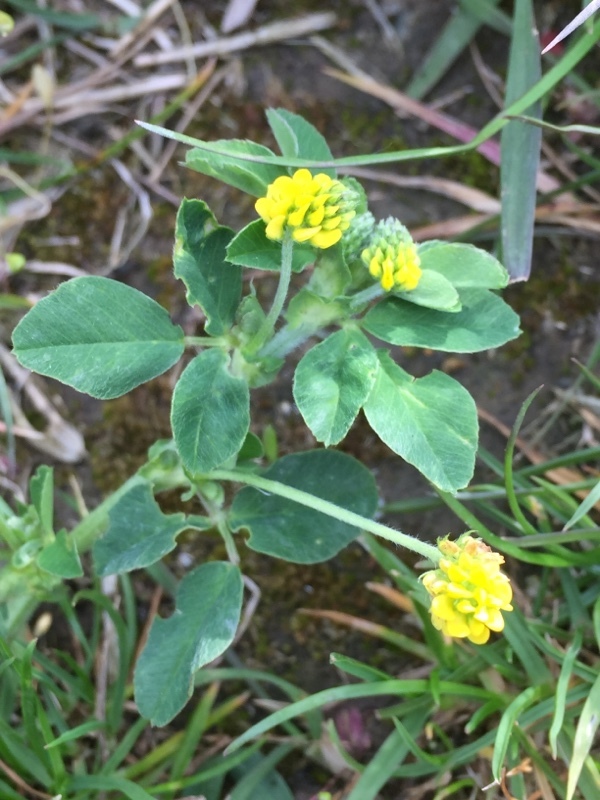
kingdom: Plantae
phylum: Tracheophyta
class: Magnoliopsida
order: Fabales
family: Fabaceae
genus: Medicago
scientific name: Medicago lupulina
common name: Black medick
